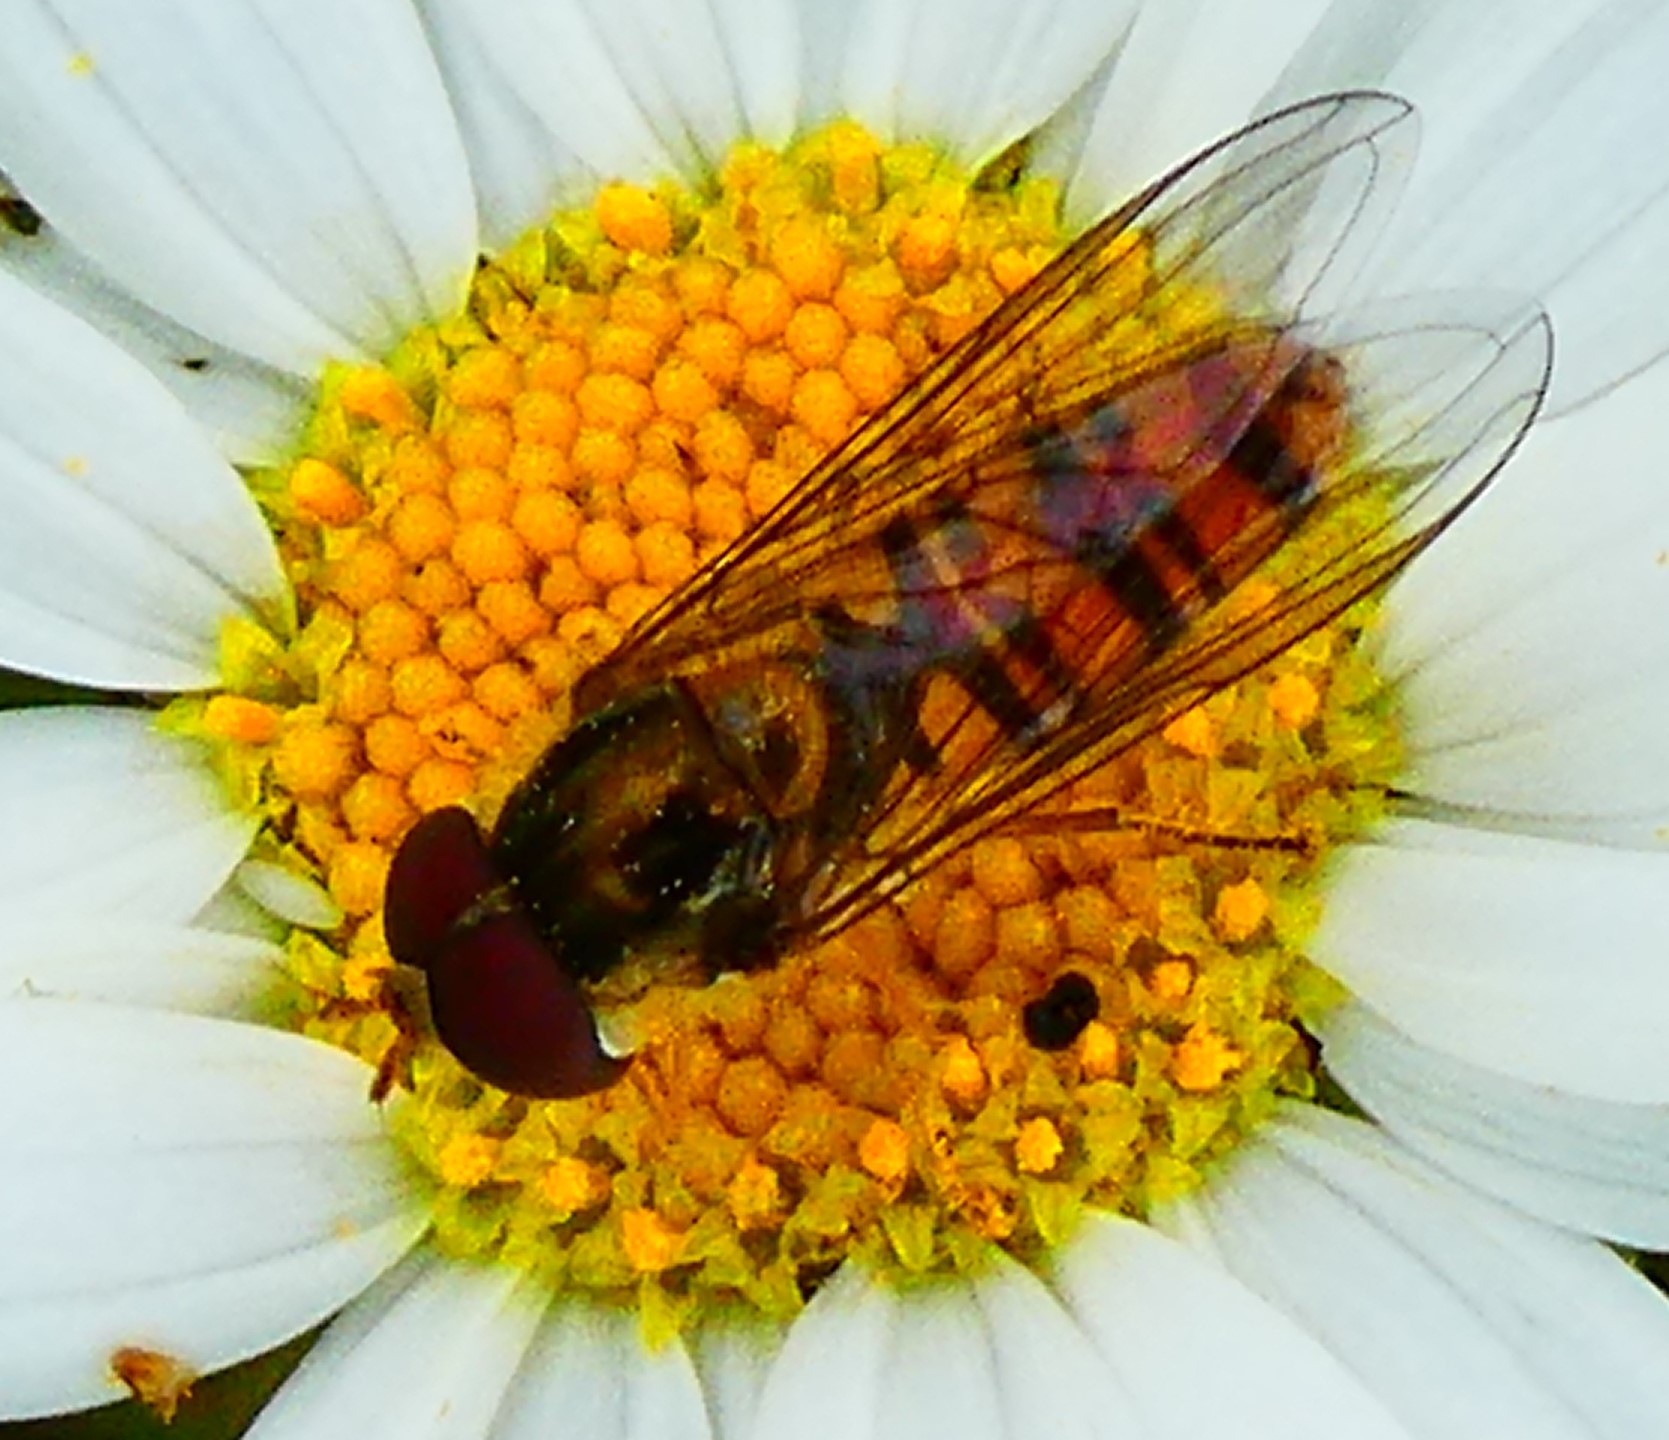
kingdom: Animalia
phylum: Arthropoda
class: Insecta
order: Diptera
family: Syrphidae
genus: Episyrphus
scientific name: Episyrphus balteatus
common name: Marmalade hoverfly
